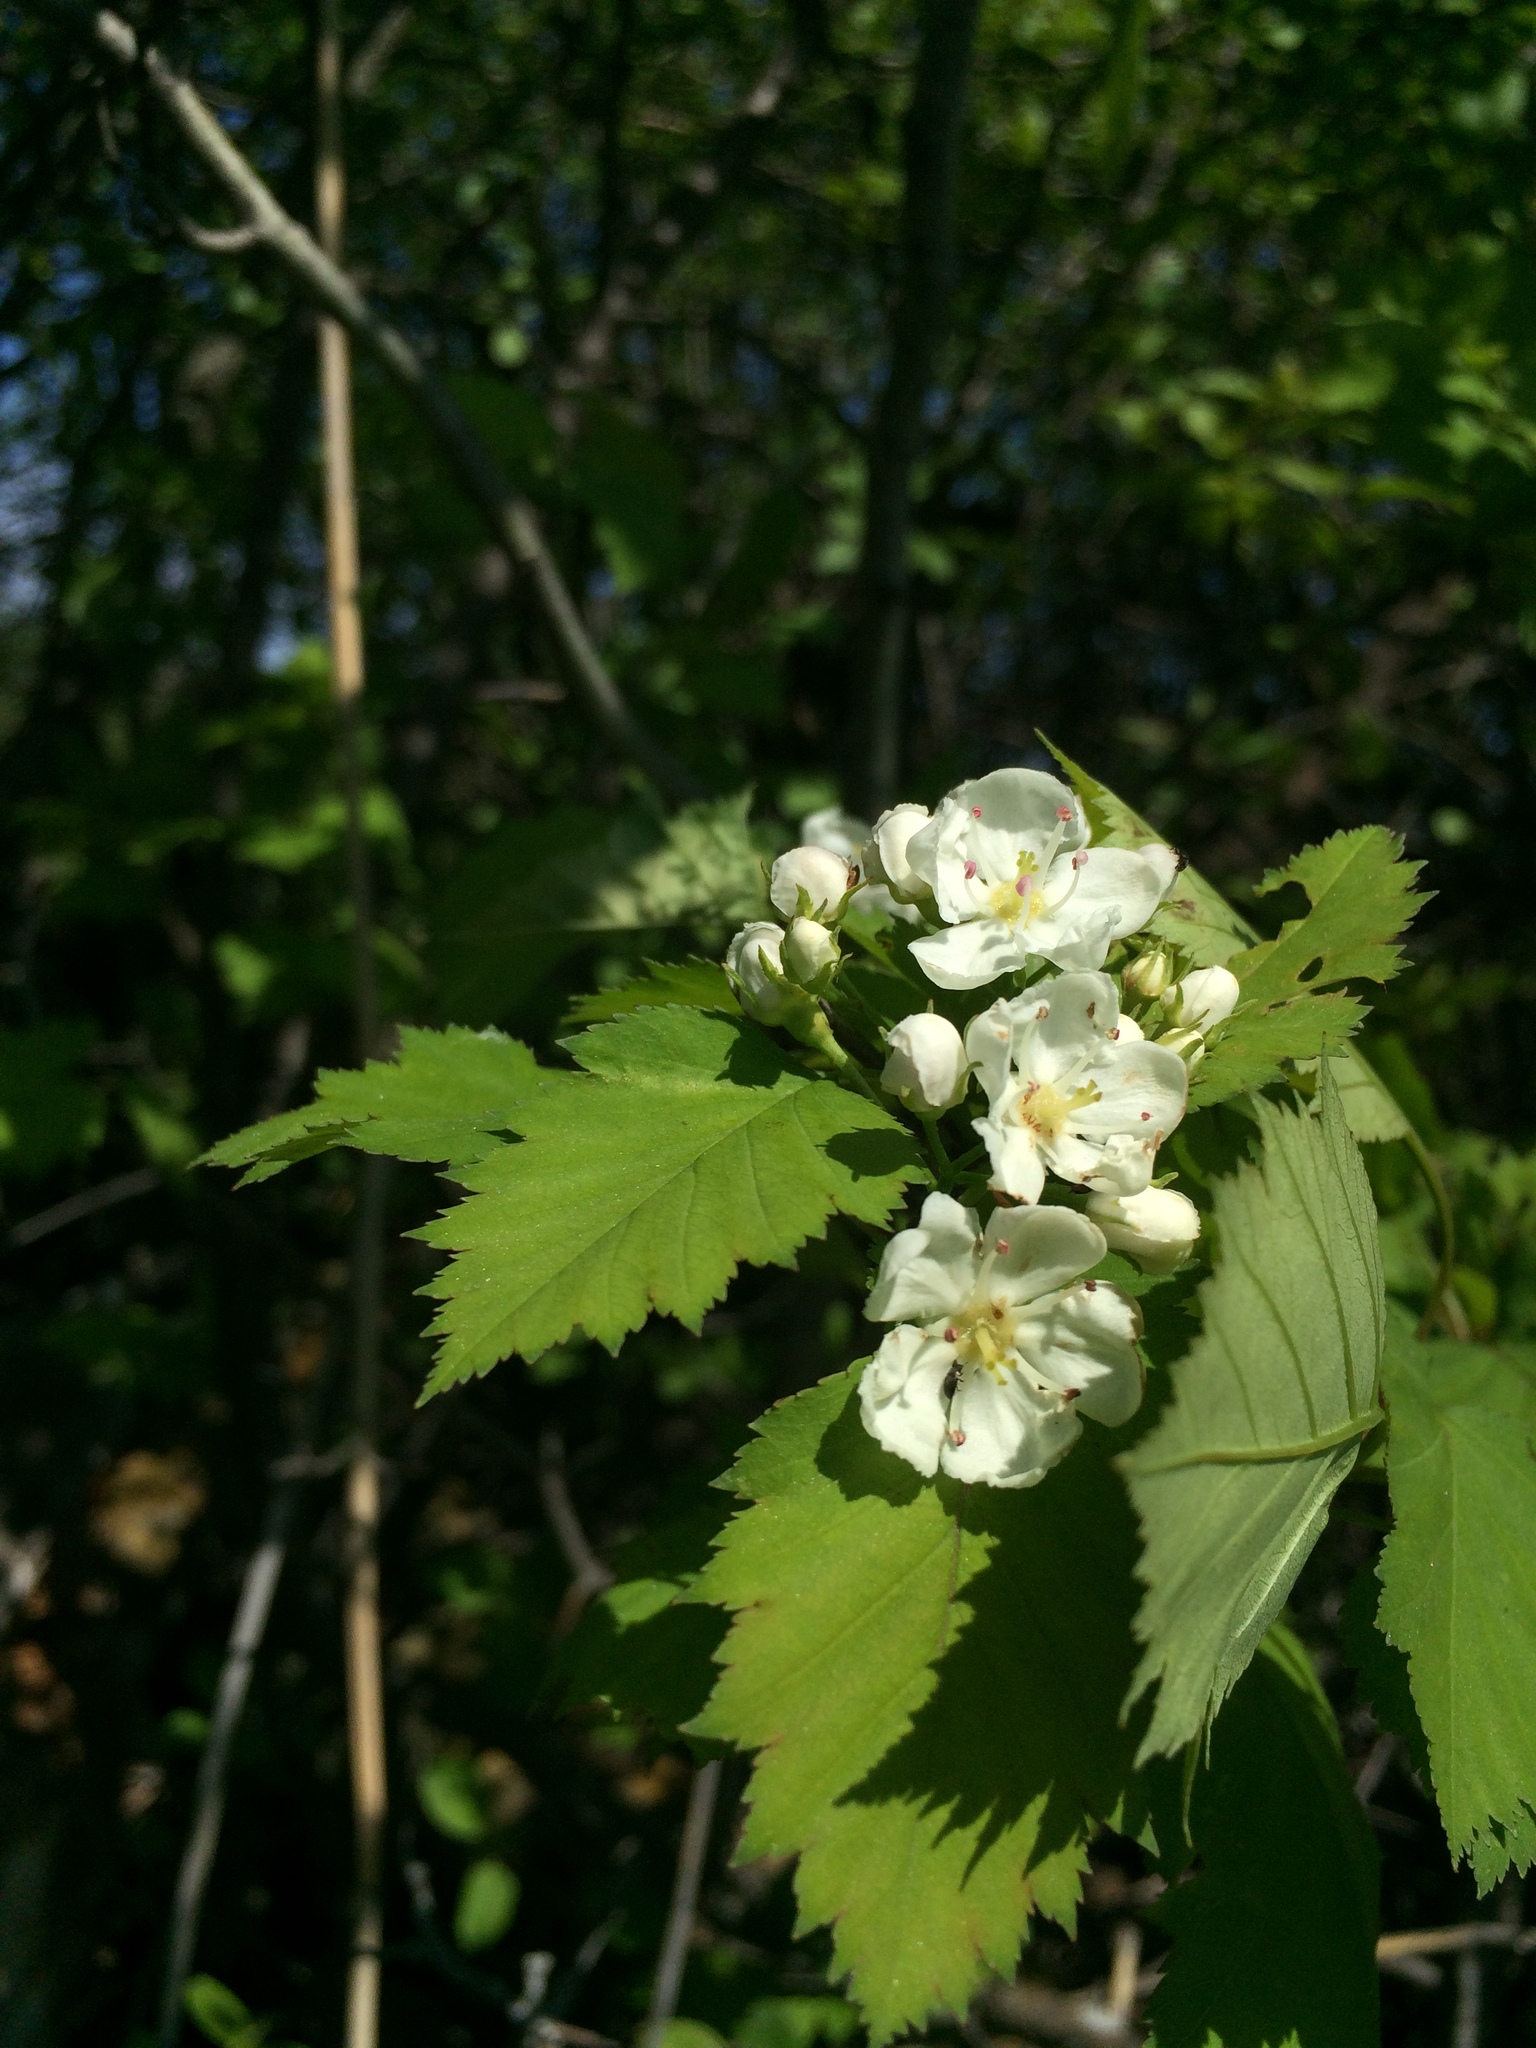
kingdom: Plantae
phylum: Tracheophyta
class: Magnoliopsida
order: Rosales
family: Rosaceae
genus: Crataegus
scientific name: Crataegus fluviatilis
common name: Fort sheridan hawthorn
